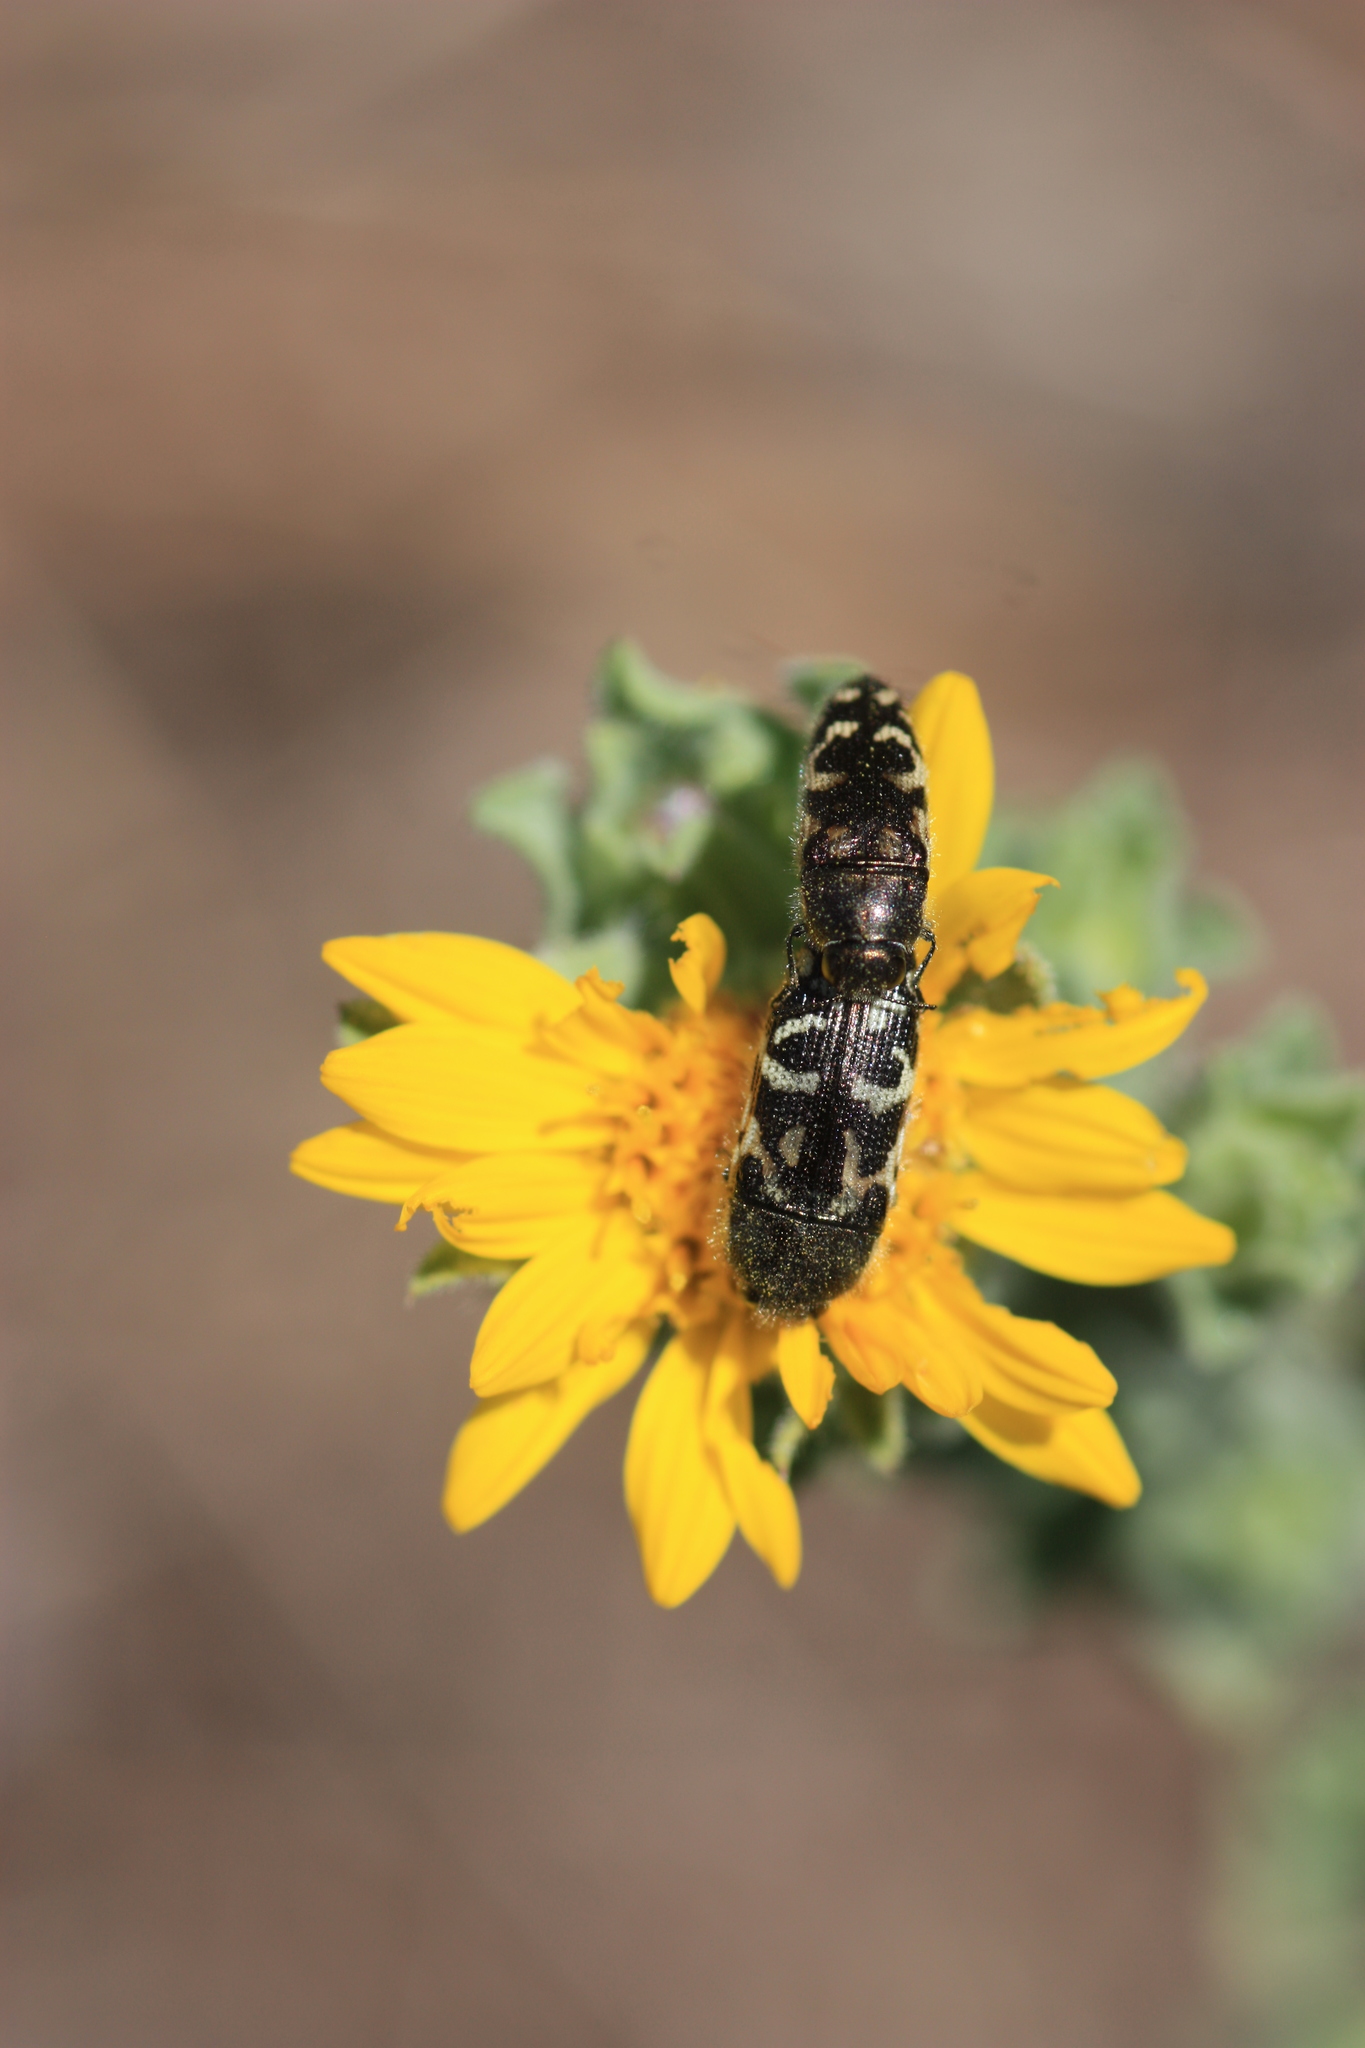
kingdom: Animalia
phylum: Arthropoda
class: Insecta
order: Coleoptera
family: Buprestidae
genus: Acmaeodera
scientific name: Acmaeodera mixta
